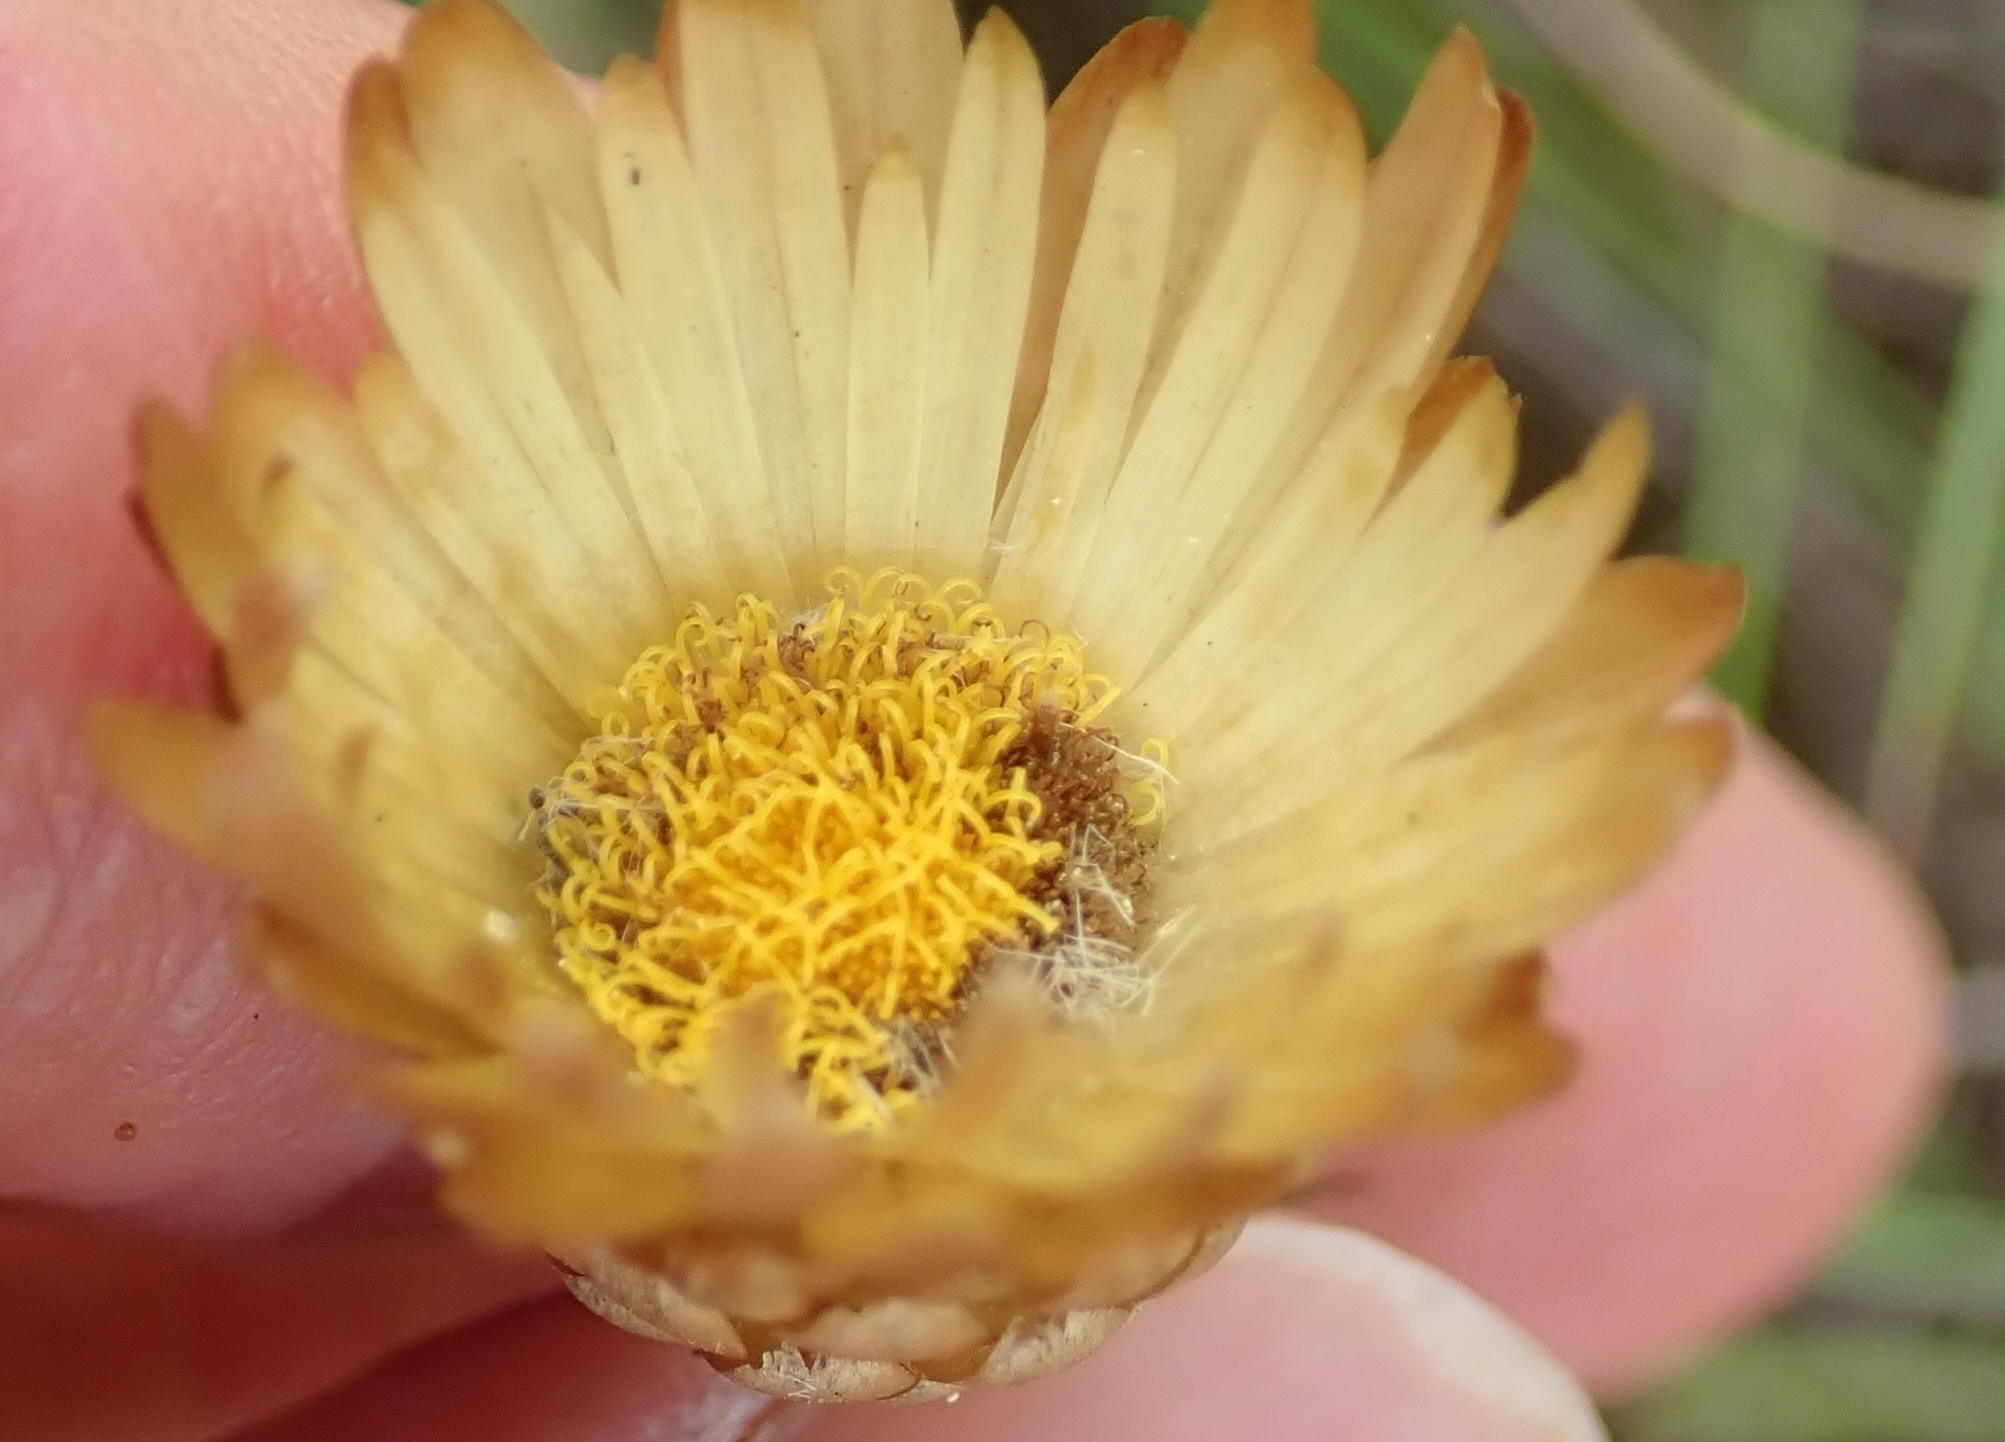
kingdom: Plantae
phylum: Tracheophyta
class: Magnoliopsida
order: Asterales
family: Asteraceae
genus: Helichrysum
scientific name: Helichrysum herbaceum
